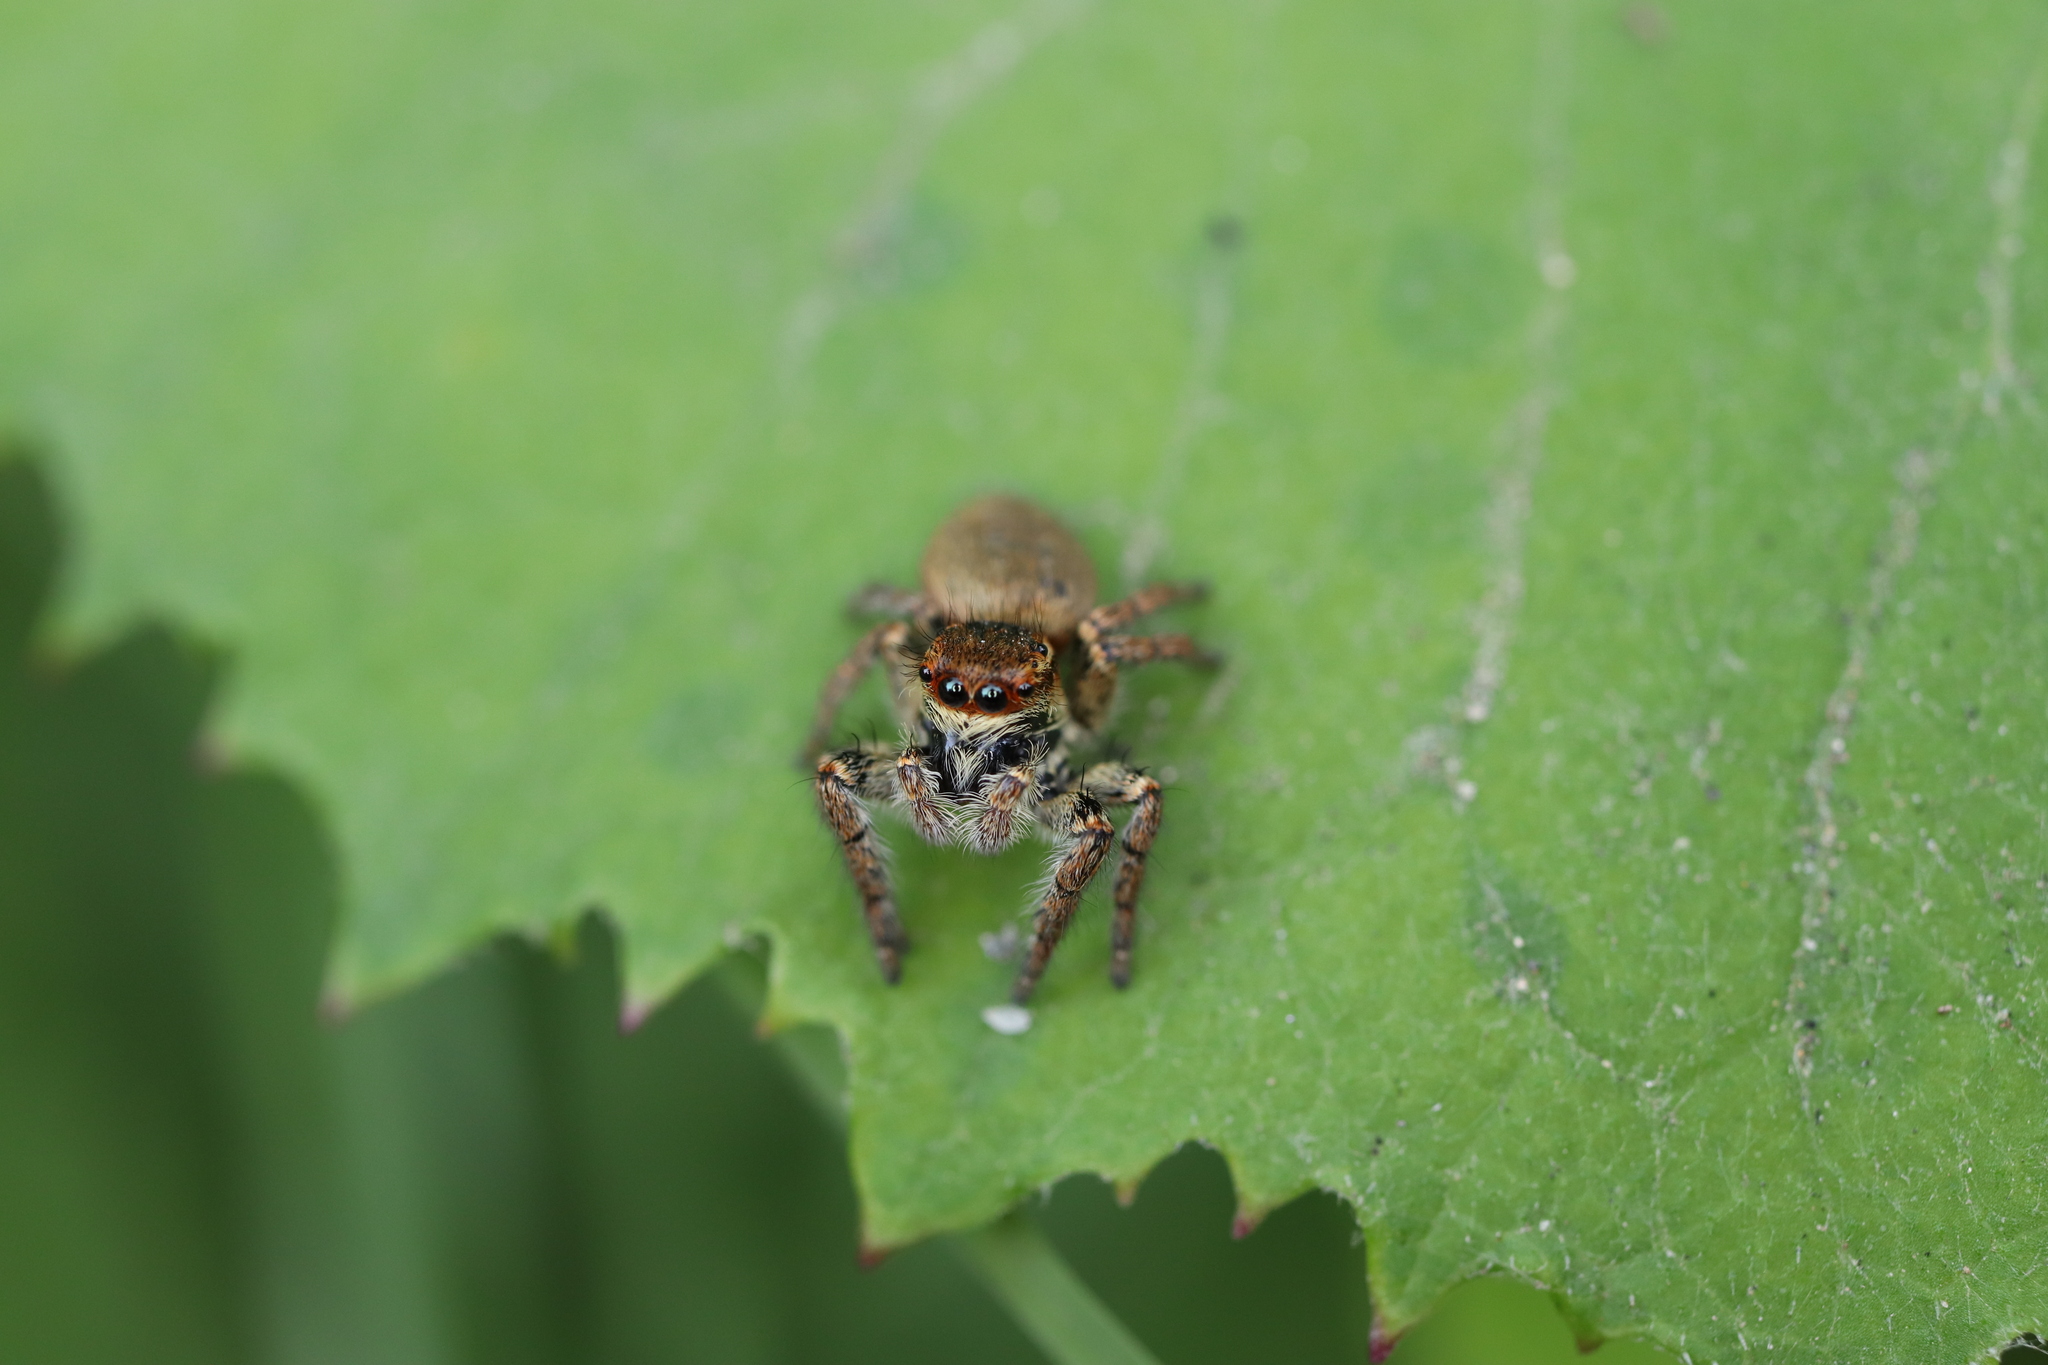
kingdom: Animalia
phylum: Arthropoda
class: Arachnida
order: Araneae
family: Salticidae
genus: Carrhotus
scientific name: Carrhotus xanthogramma
